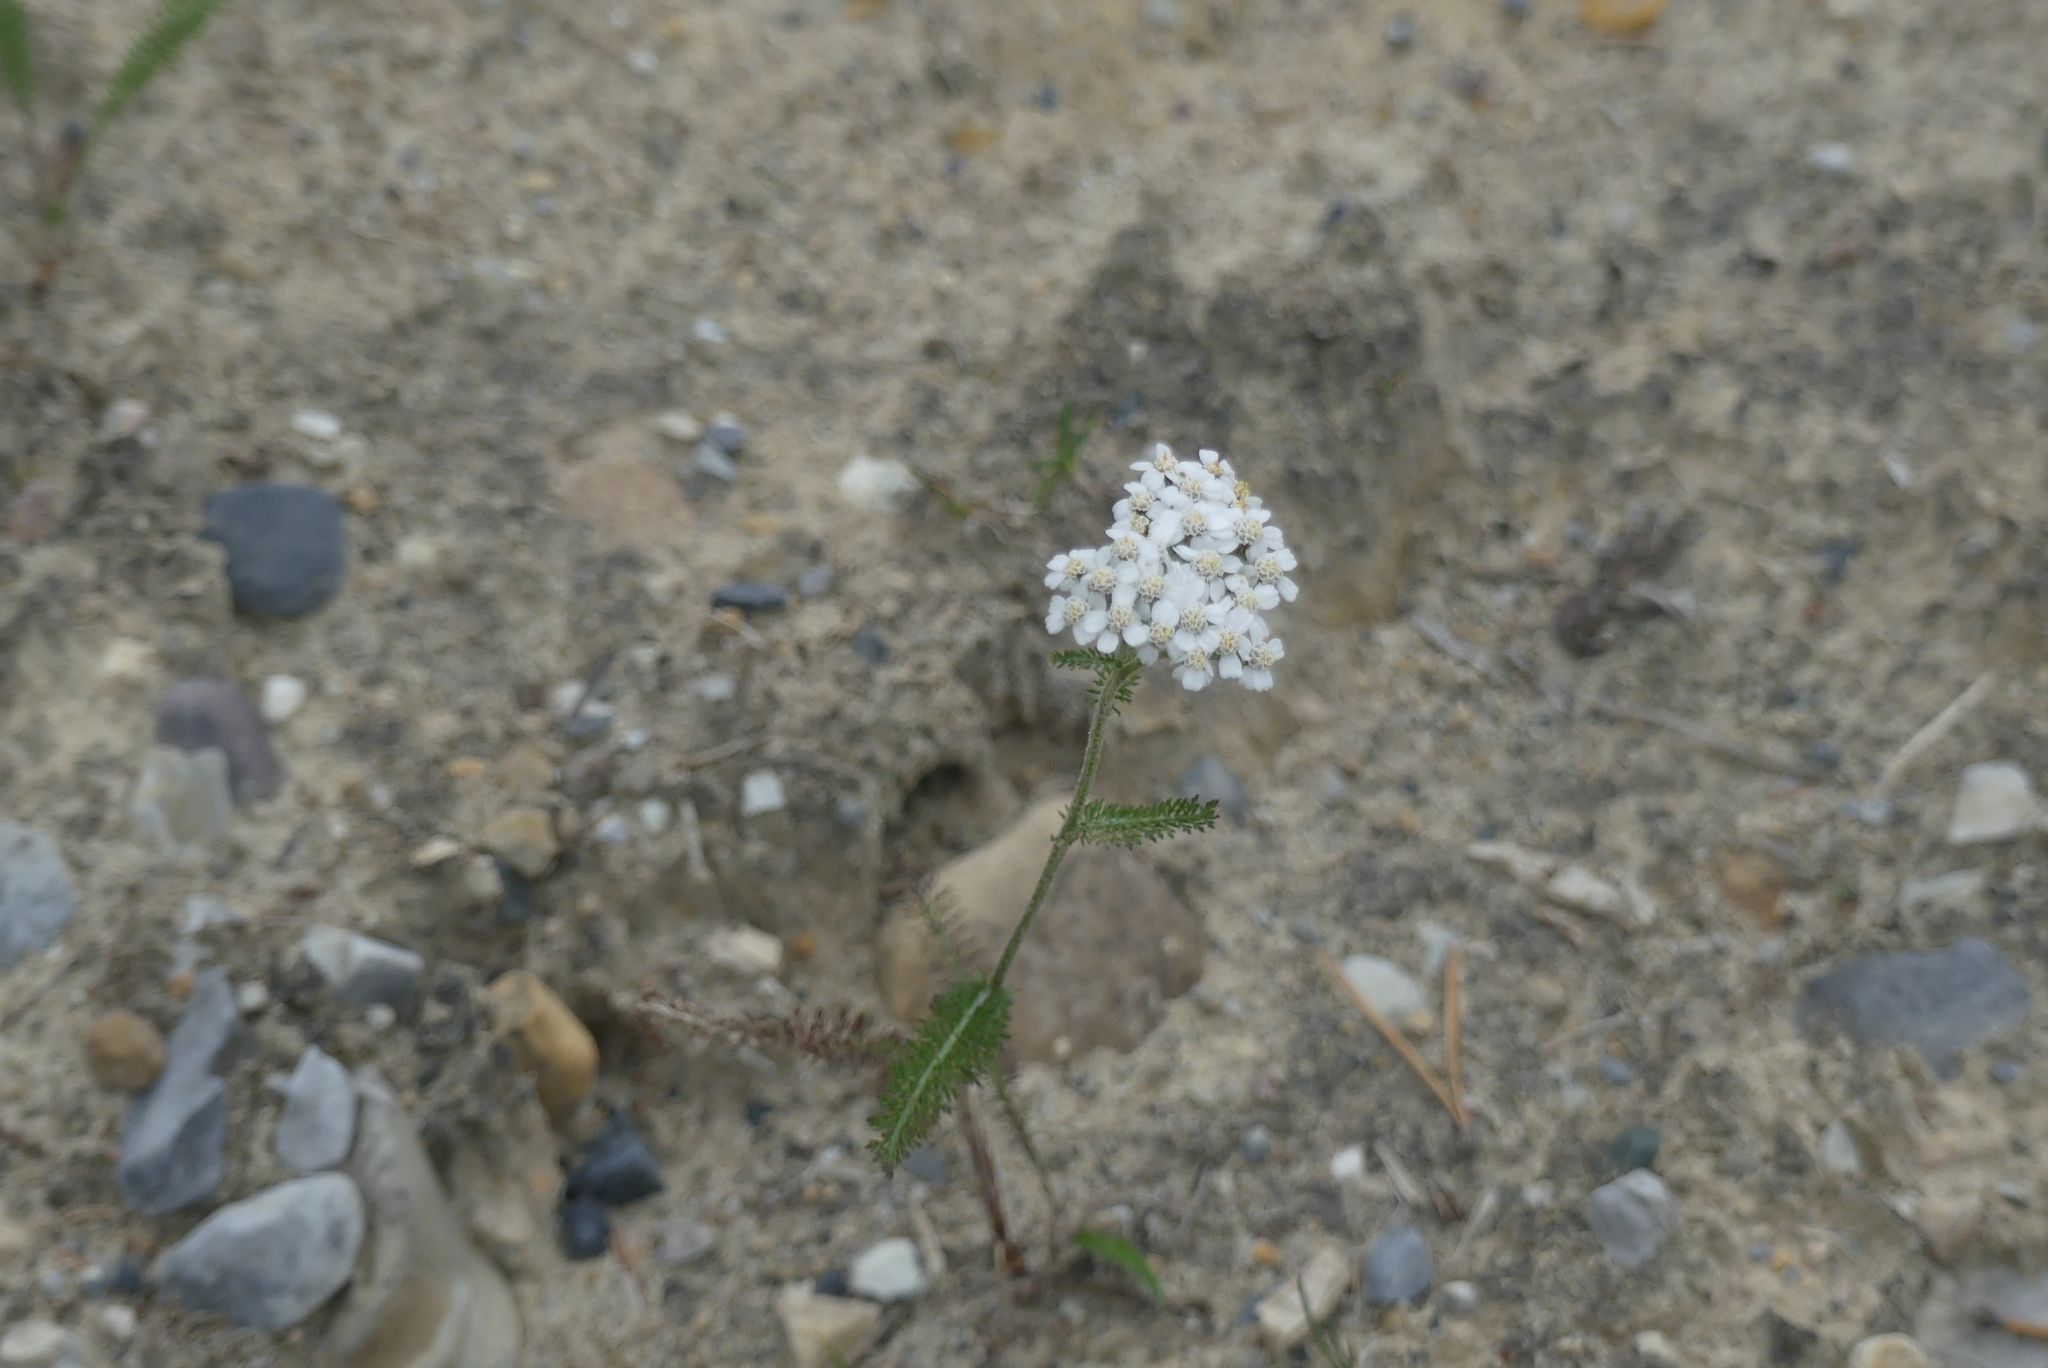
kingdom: Plantae
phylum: Tracheophyta
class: Magnoliopsida
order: Asterales
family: Asteraceae
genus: Achillea
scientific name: Achillea millefolium
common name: Yarrow
